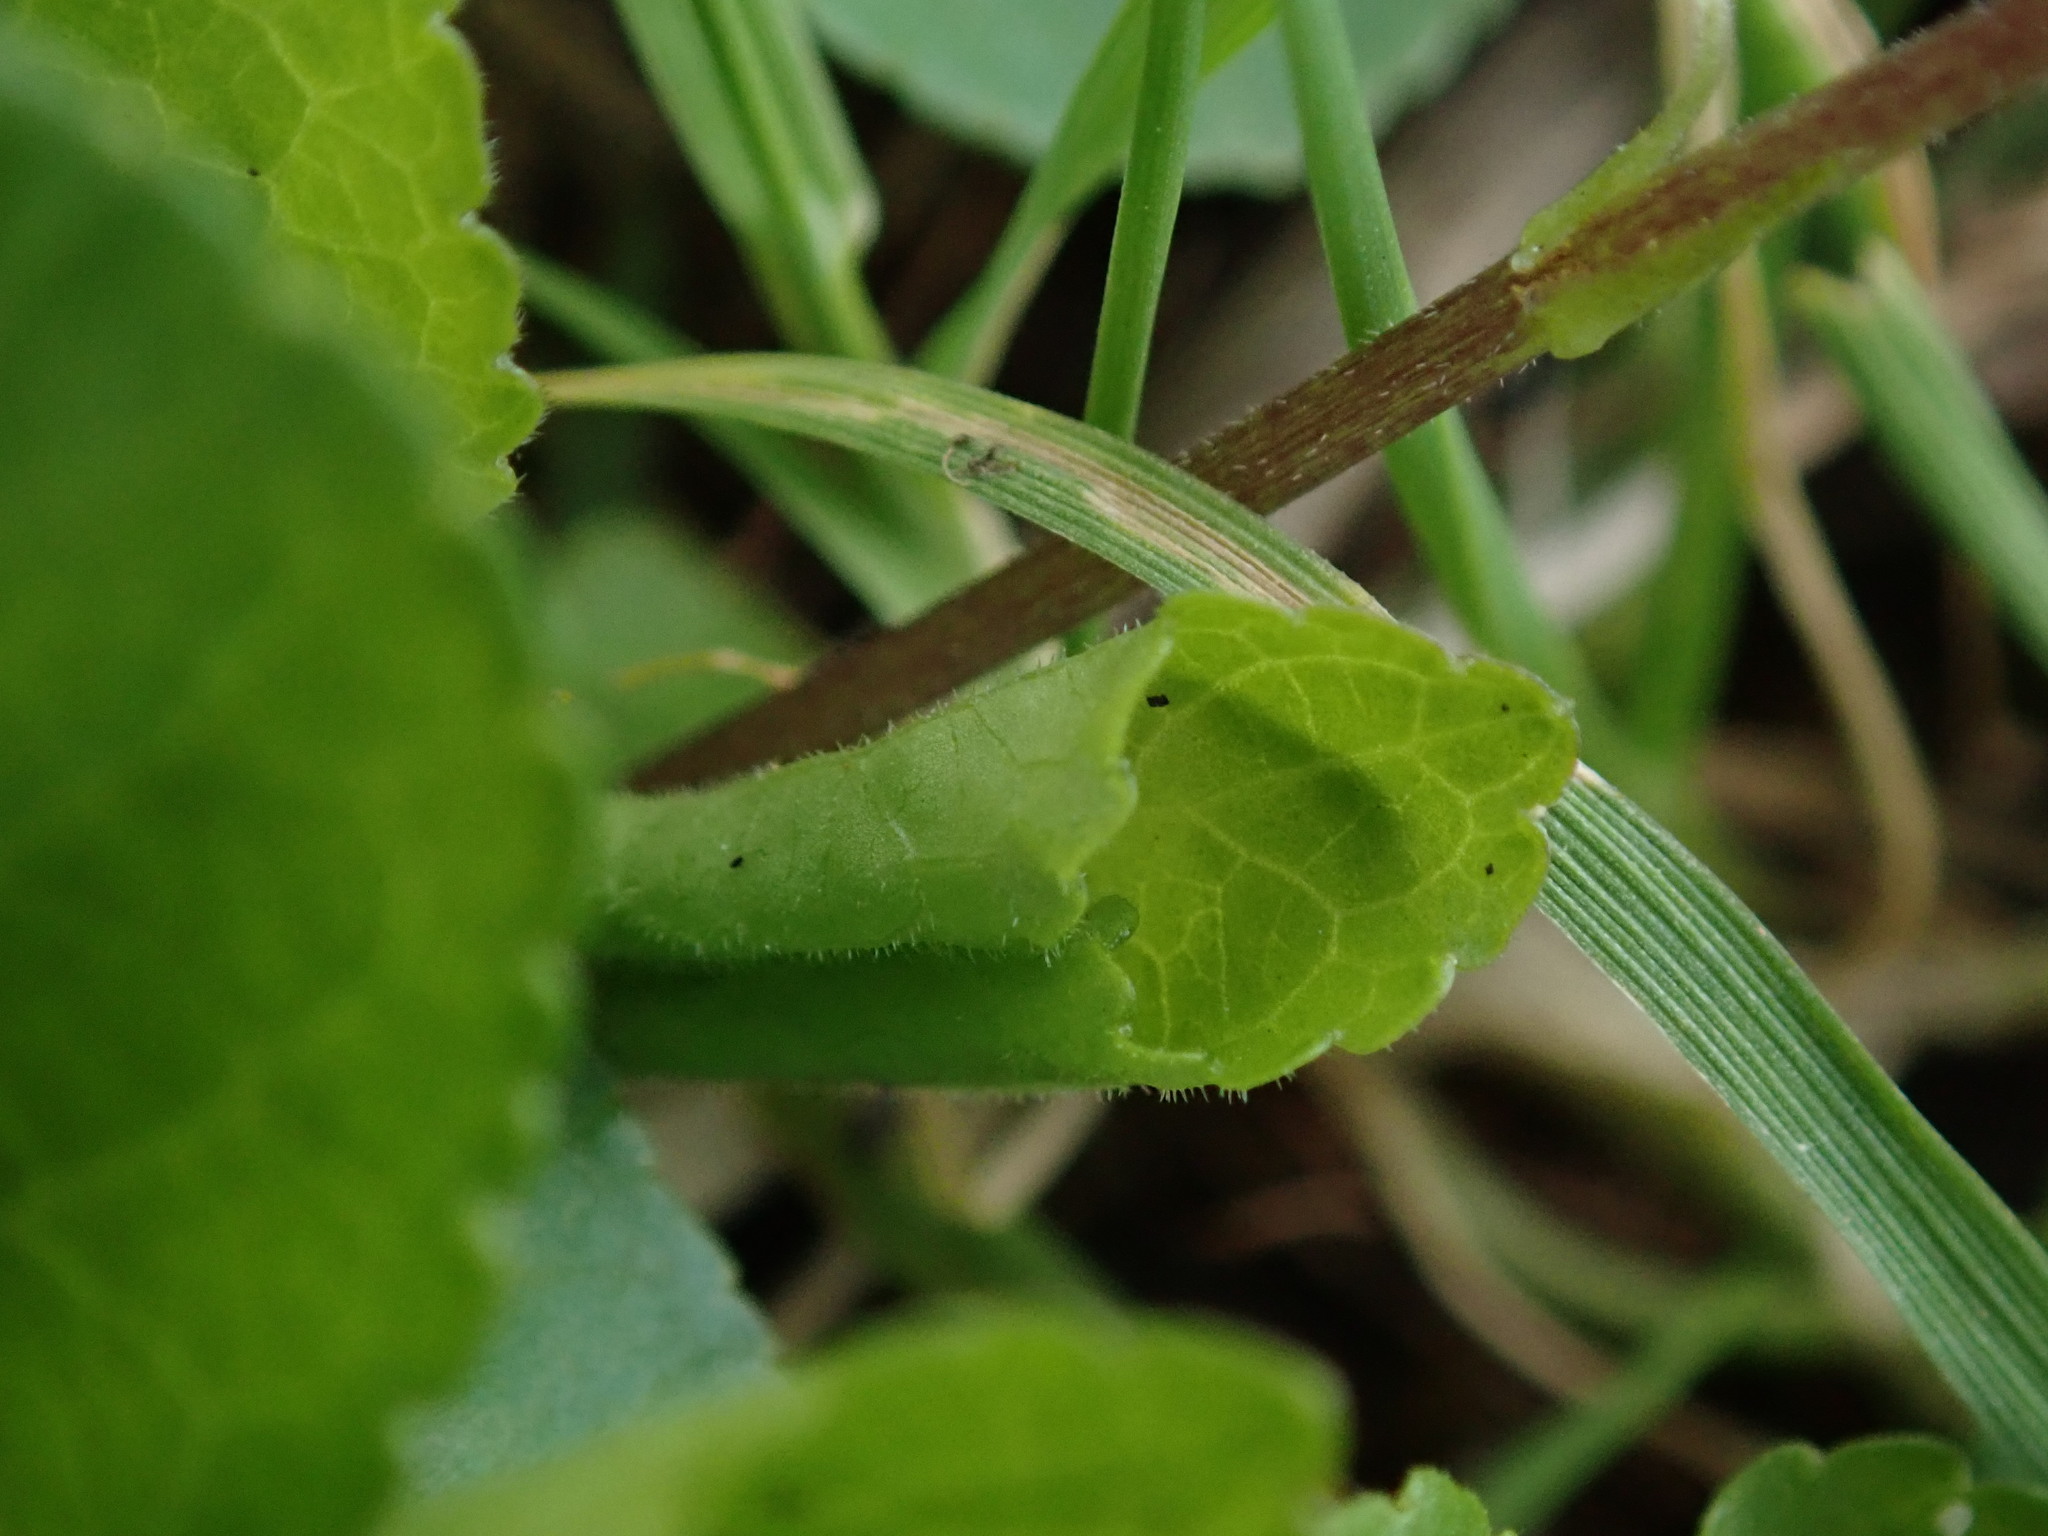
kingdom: Plantae
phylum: Tracheophyta
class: Magnoliopsida
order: Malpighiales
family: Violaceae
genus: Viola
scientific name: Viola odorata
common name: Sweet violet
